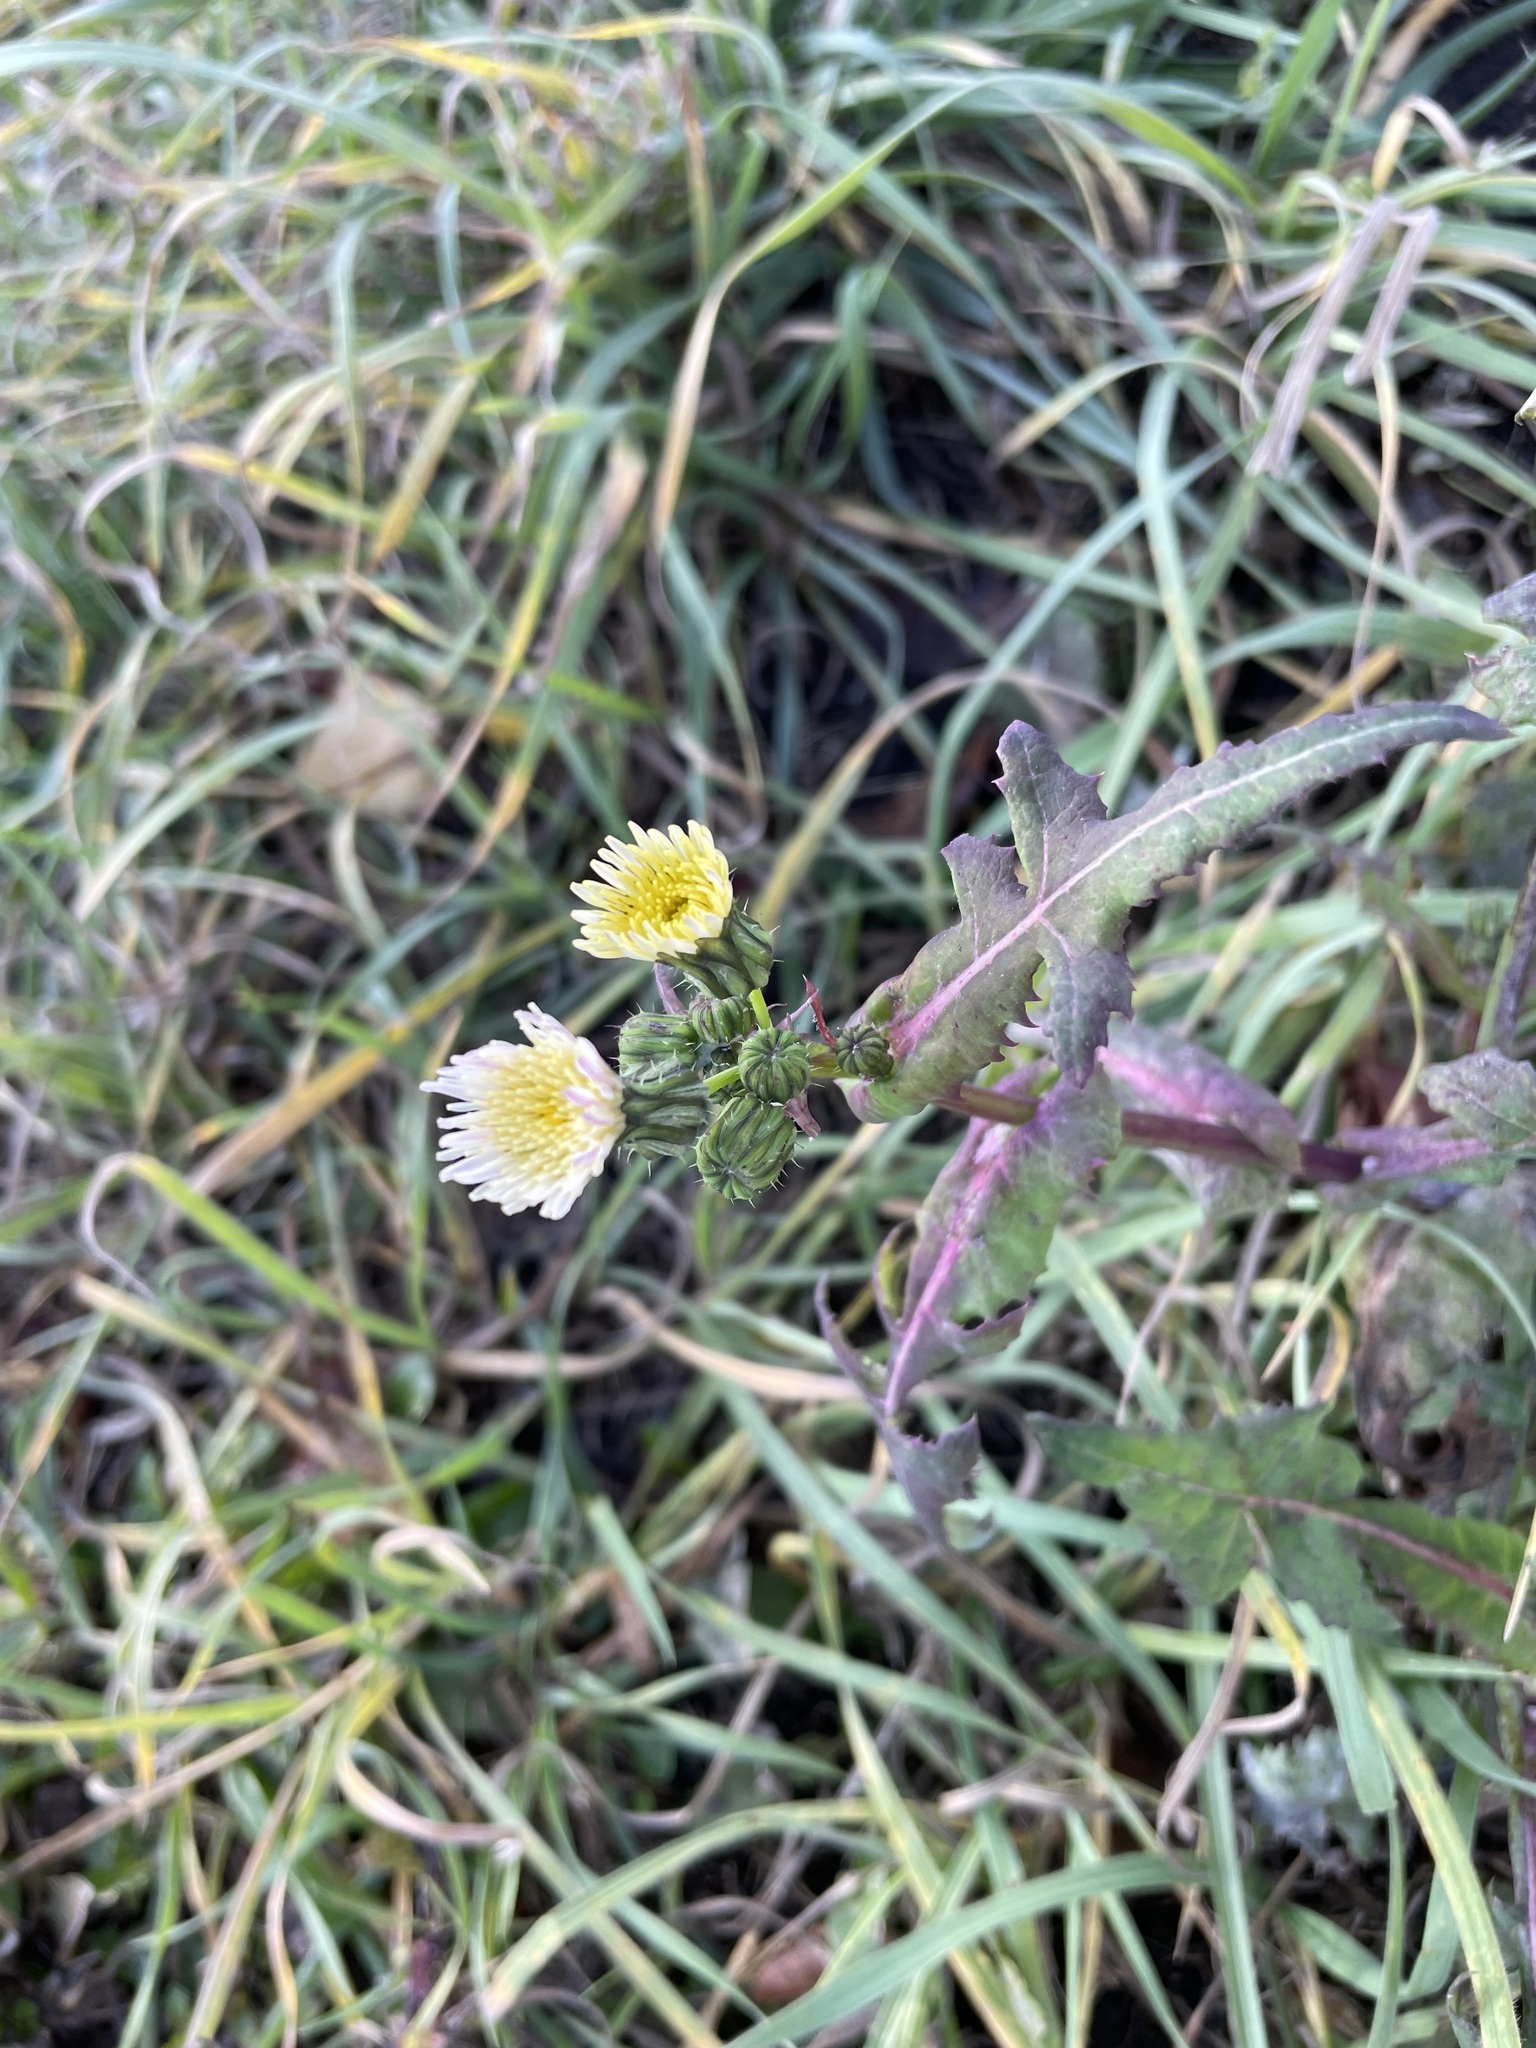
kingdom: Plantae
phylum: Tracheophyta
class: Magnoliopsida
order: Asterales
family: Asteraceae
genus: Sonchus
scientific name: Sonchus oleraceus
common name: Common sowthistle
